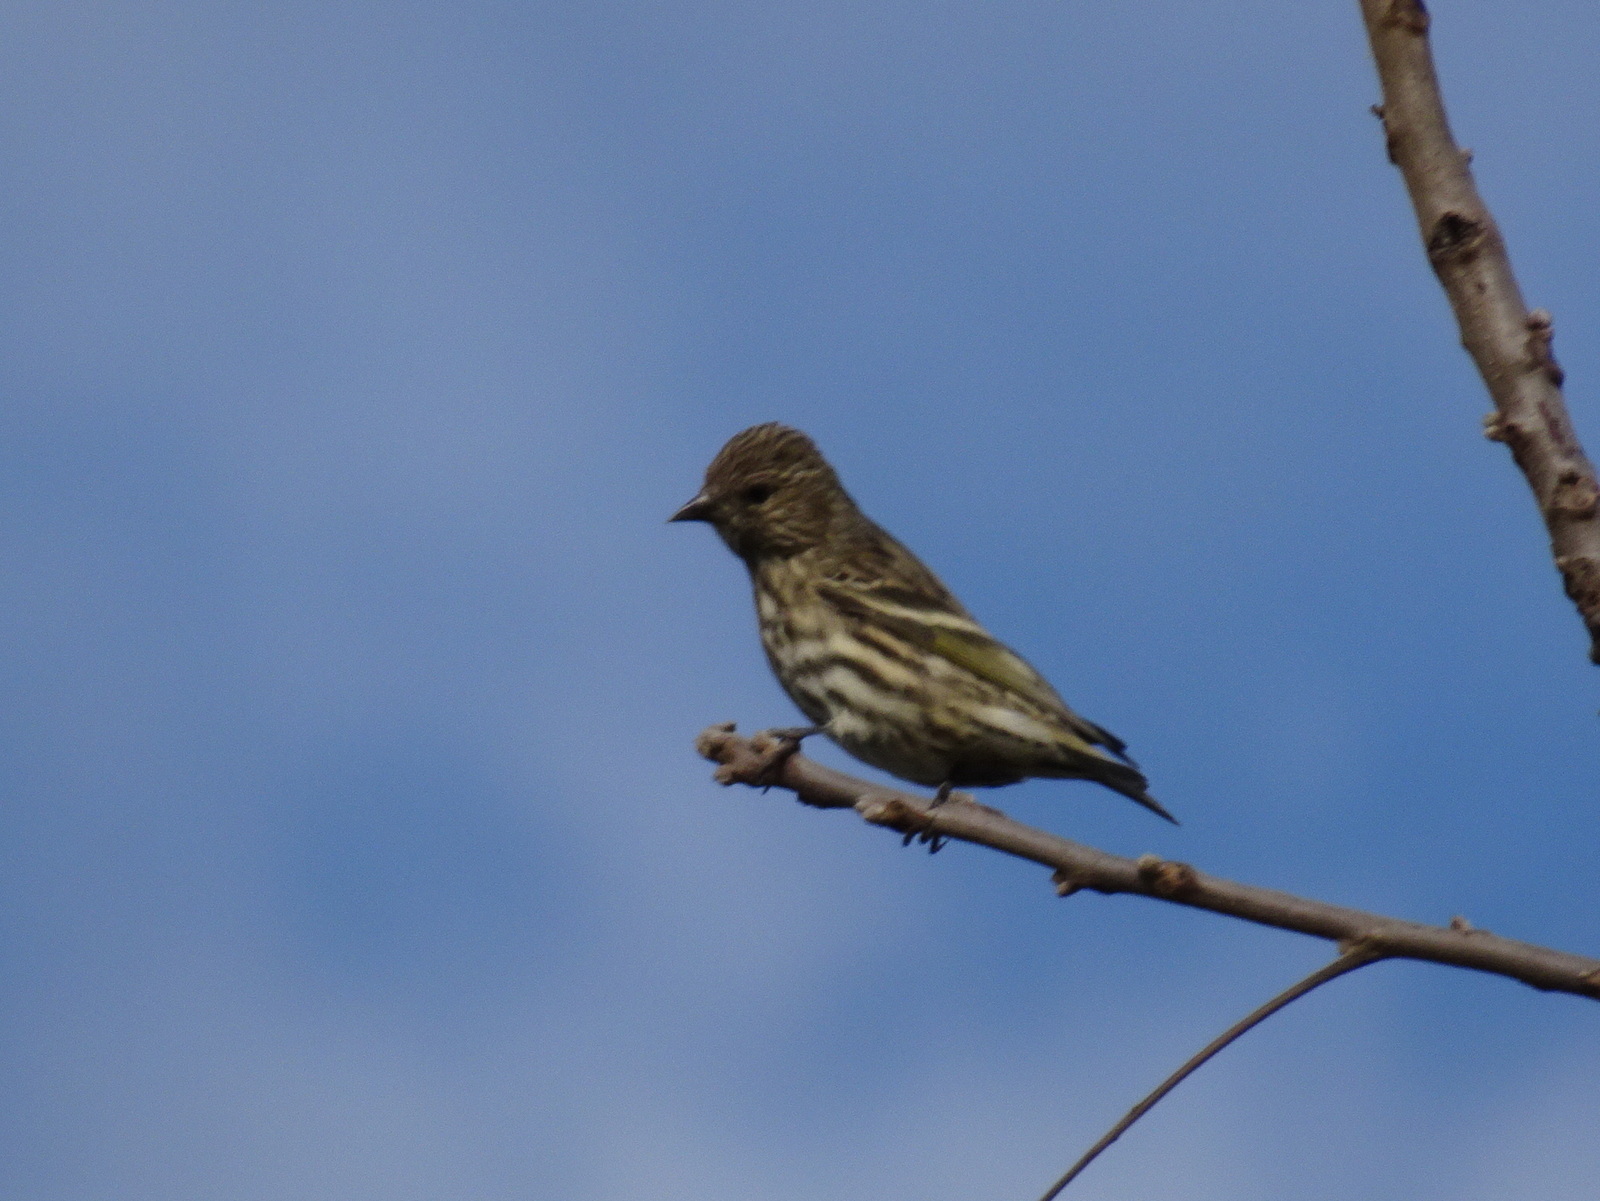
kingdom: Animalia
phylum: Chordata
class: Aves
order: Passeriformes
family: Fringillidae
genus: Spinus
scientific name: Spinus pinus
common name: Pine siskin
